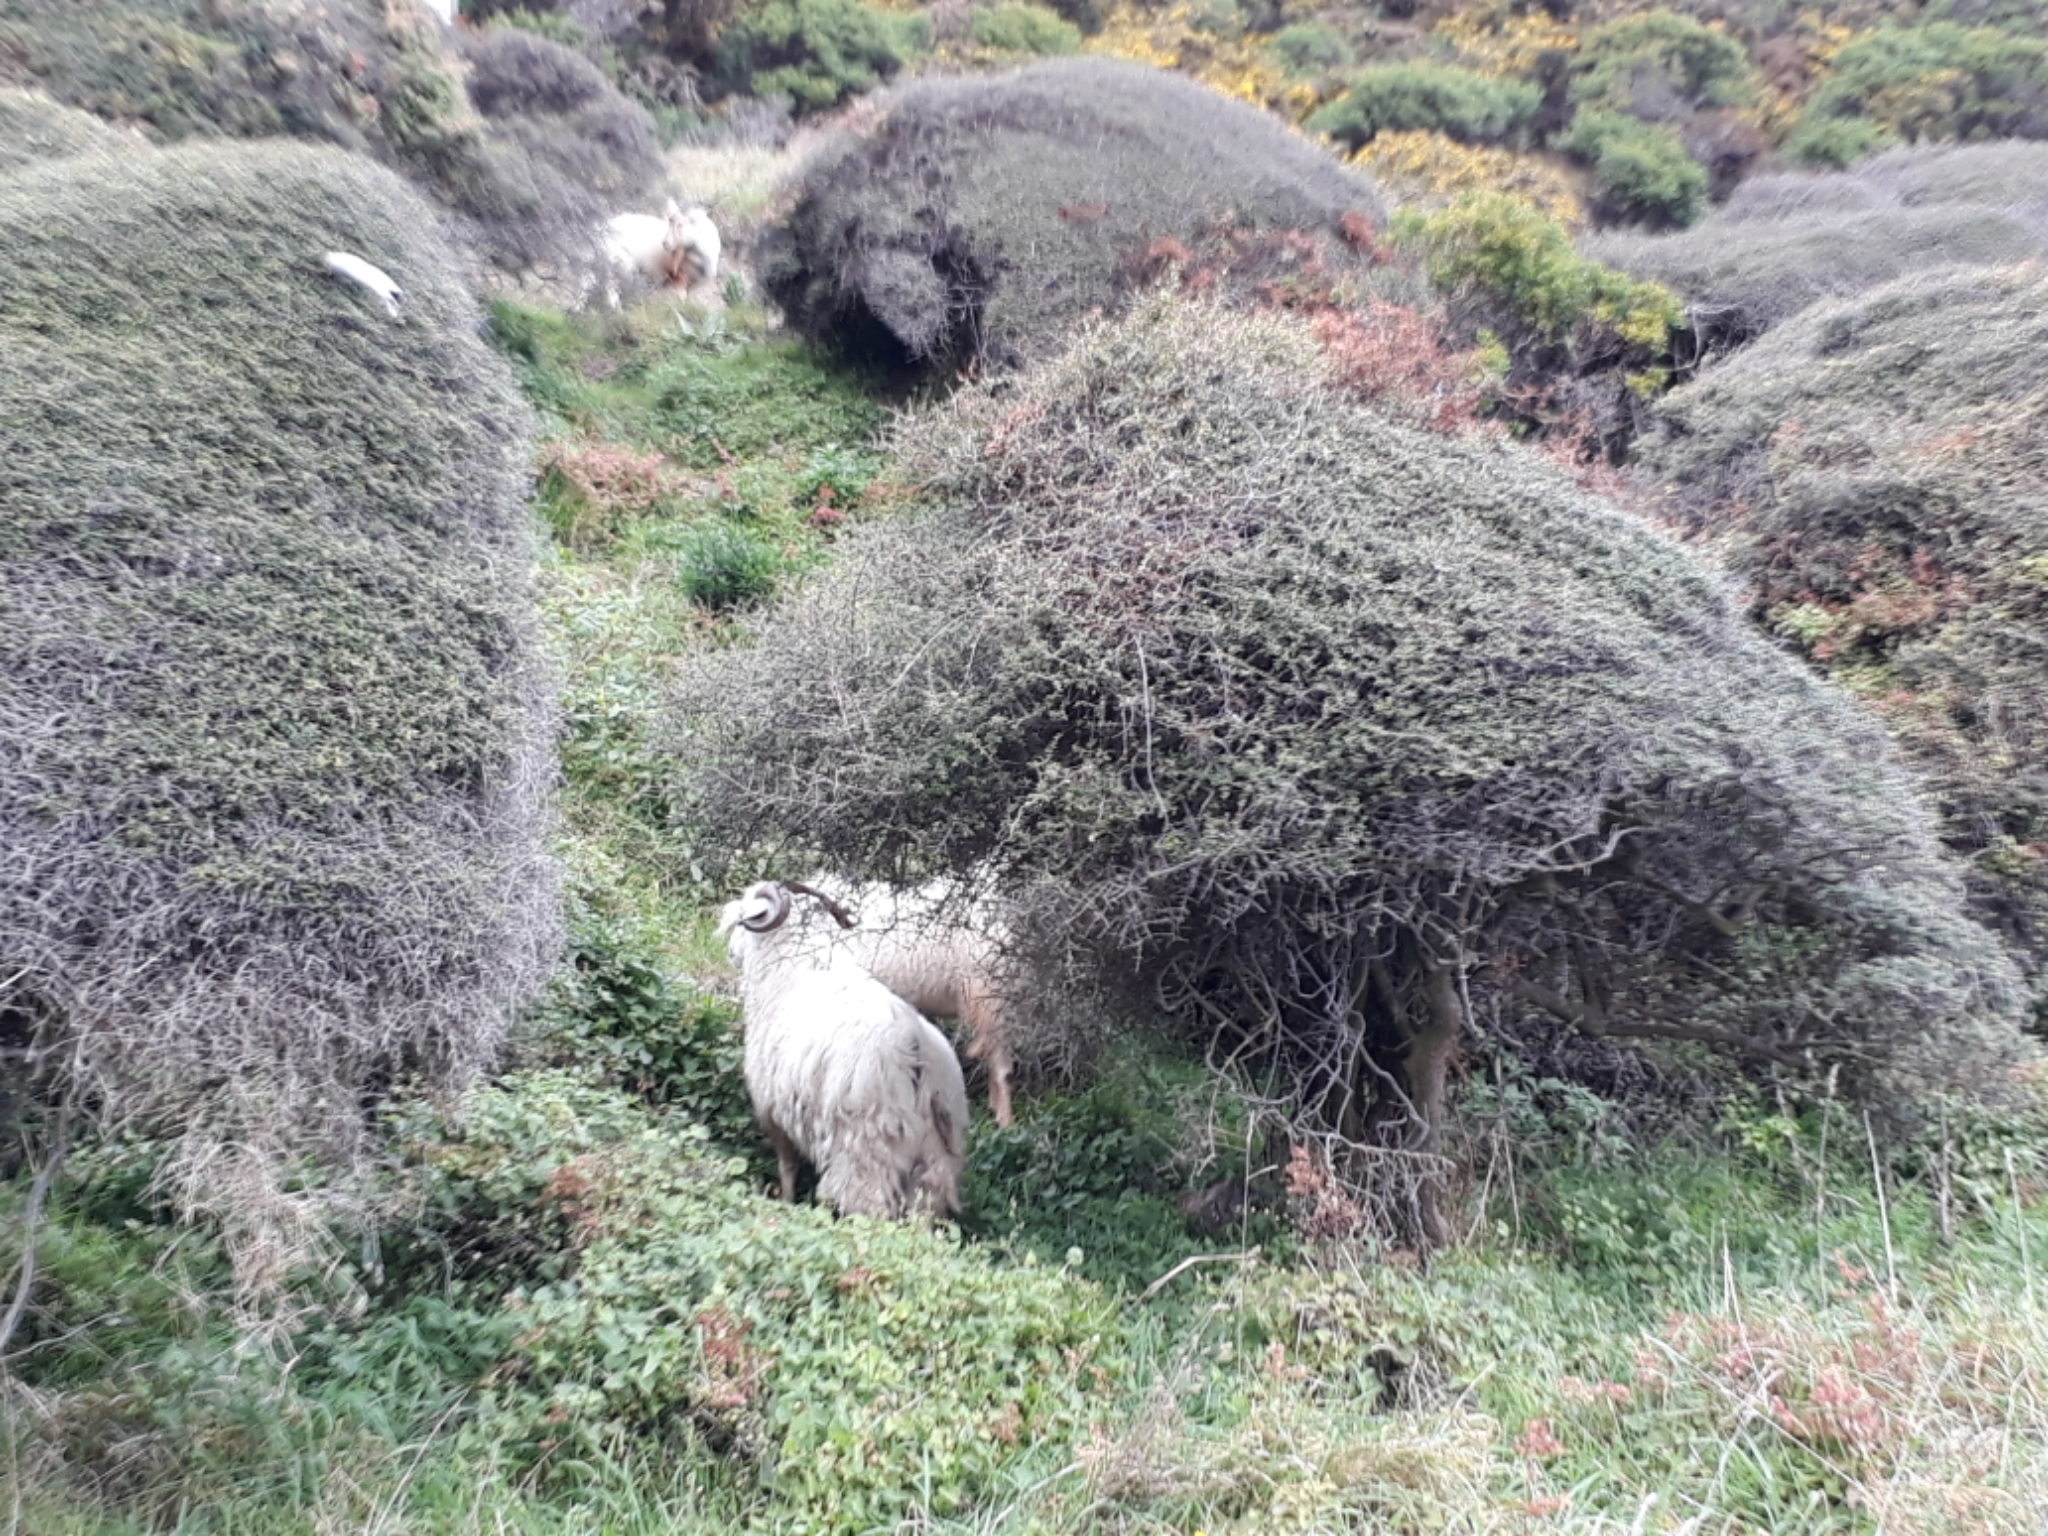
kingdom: Animalia
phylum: Chordata
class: Mammalia
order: Artiodactyla
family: Bovidae
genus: Capra
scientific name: Capra hircus
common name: Domestic goat
